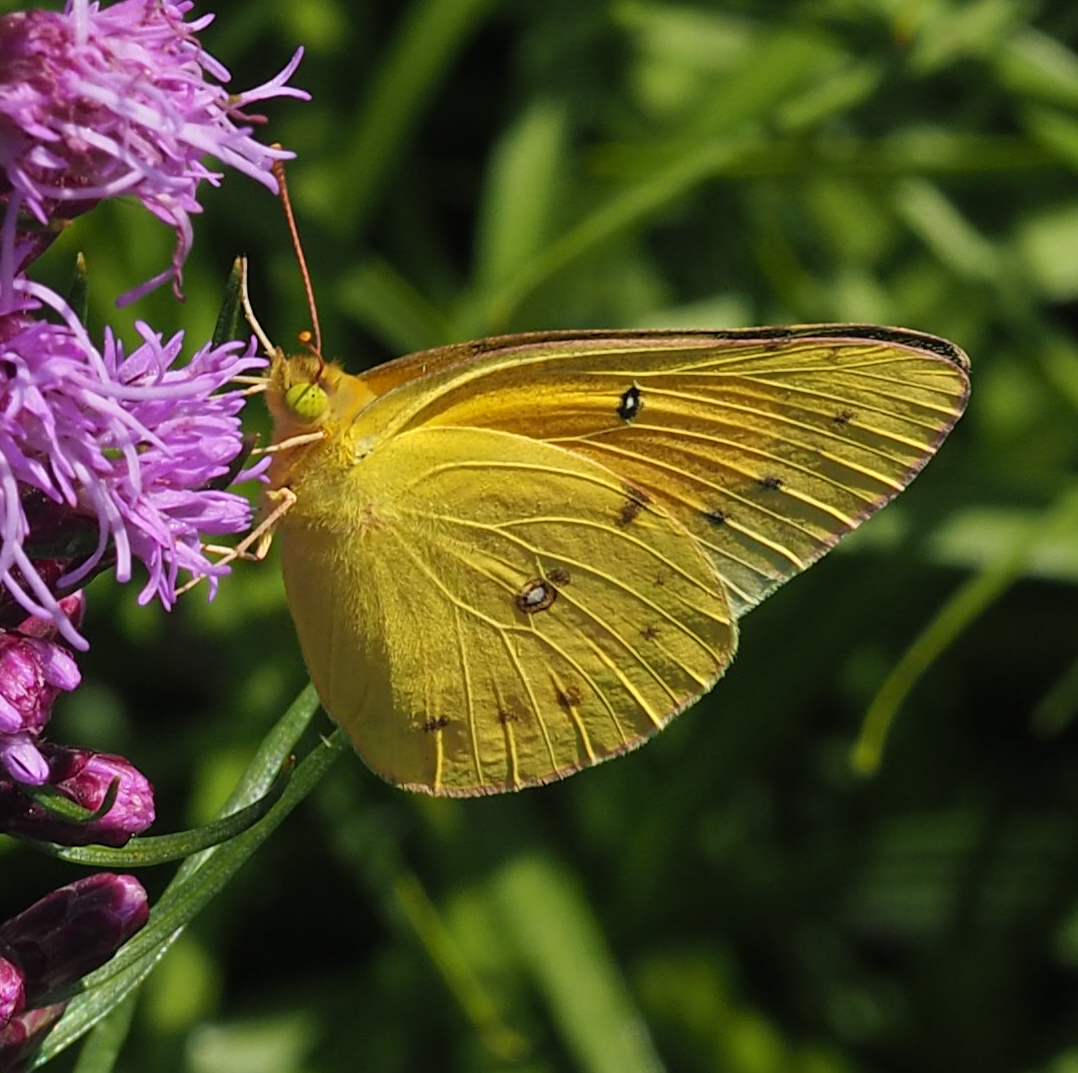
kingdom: Animalia
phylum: Arthropoda
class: Insecta
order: Lepidoptera
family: Pieridae
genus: Colias
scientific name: Colias eurytheme
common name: Alfalfa butterfly
